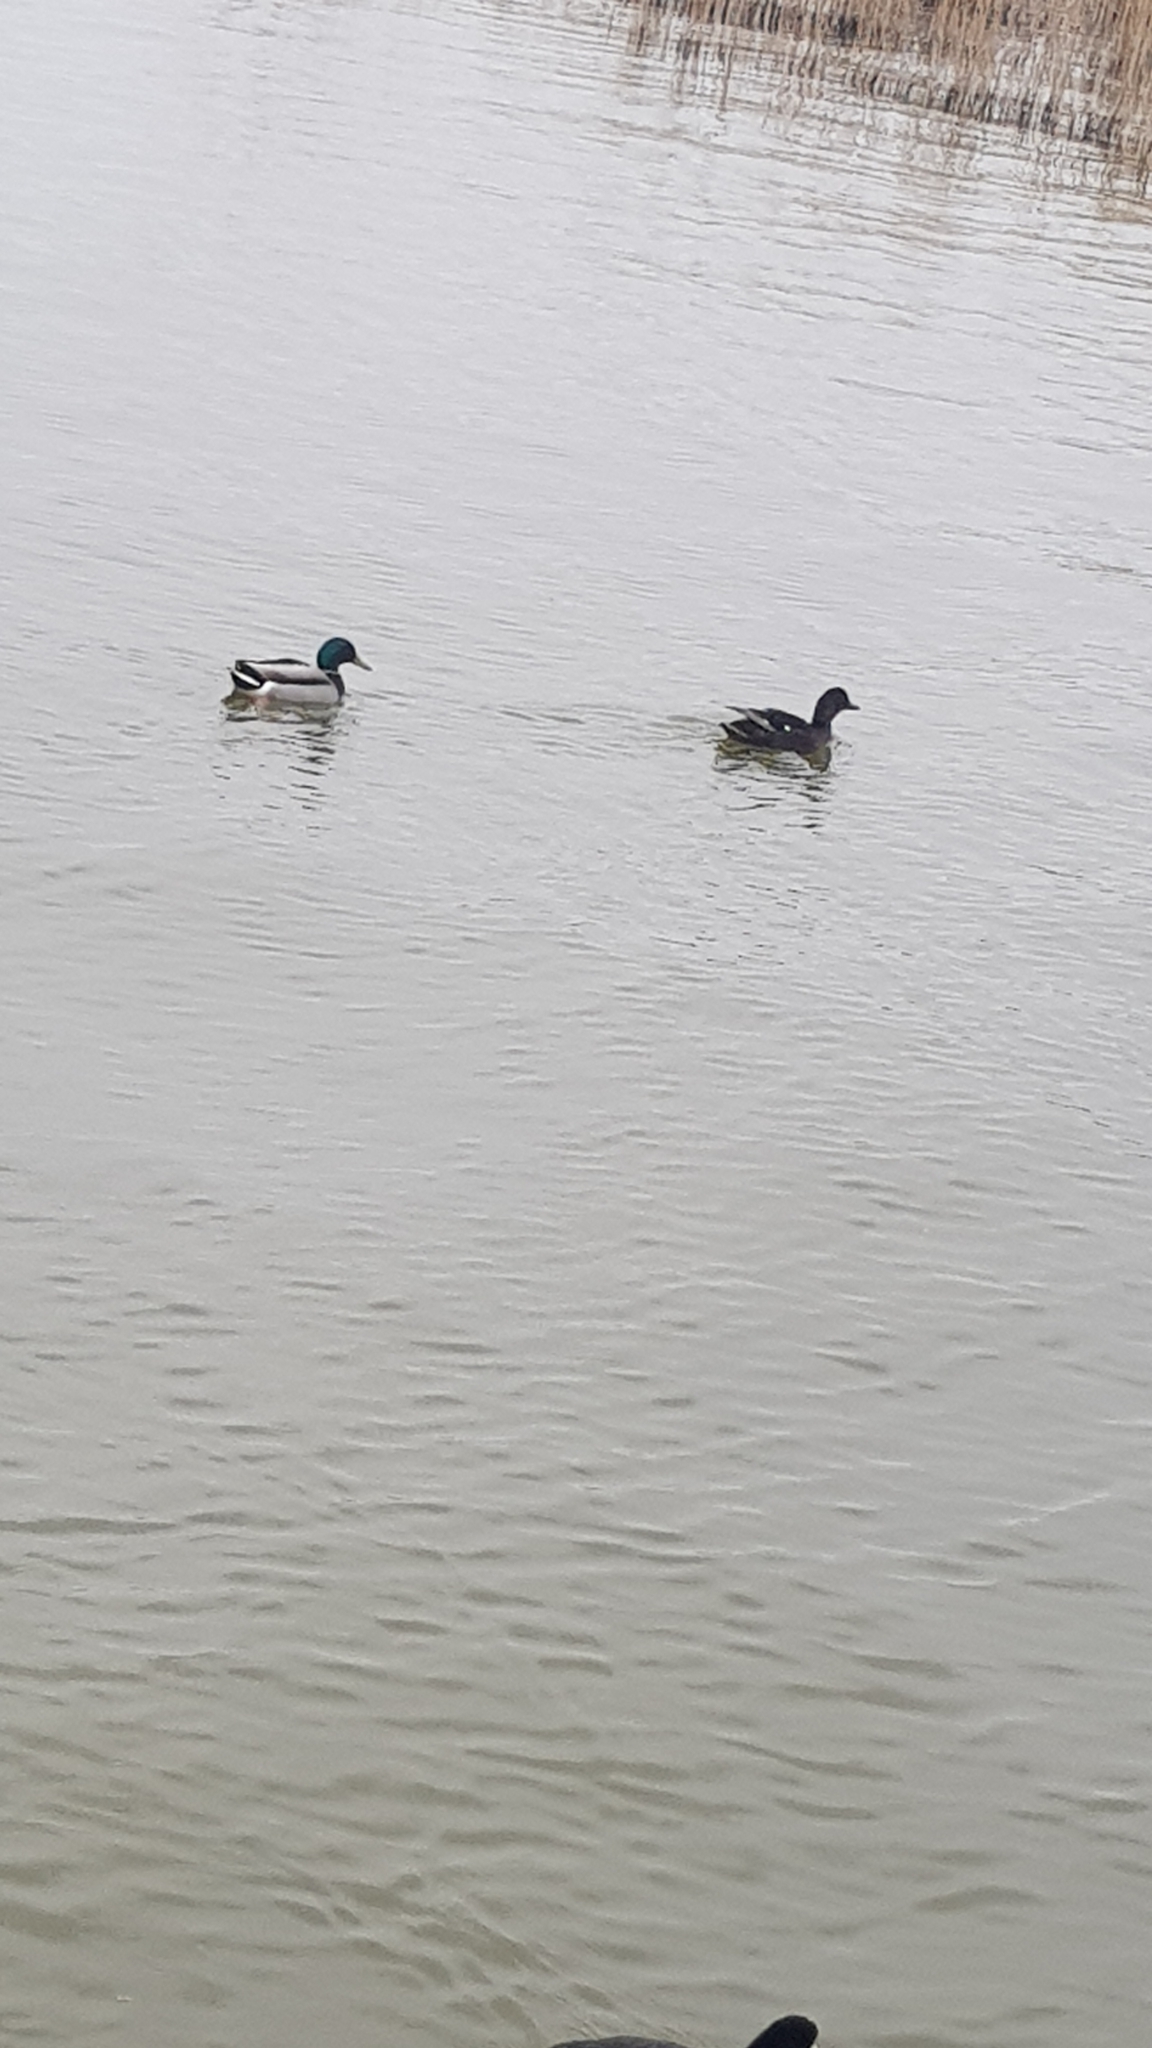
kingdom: Animalia
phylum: Chordata
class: Aves
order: Anseriformes
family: Anatidae
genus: Anas
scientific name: Anas platyrhynchos
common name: Mallard
